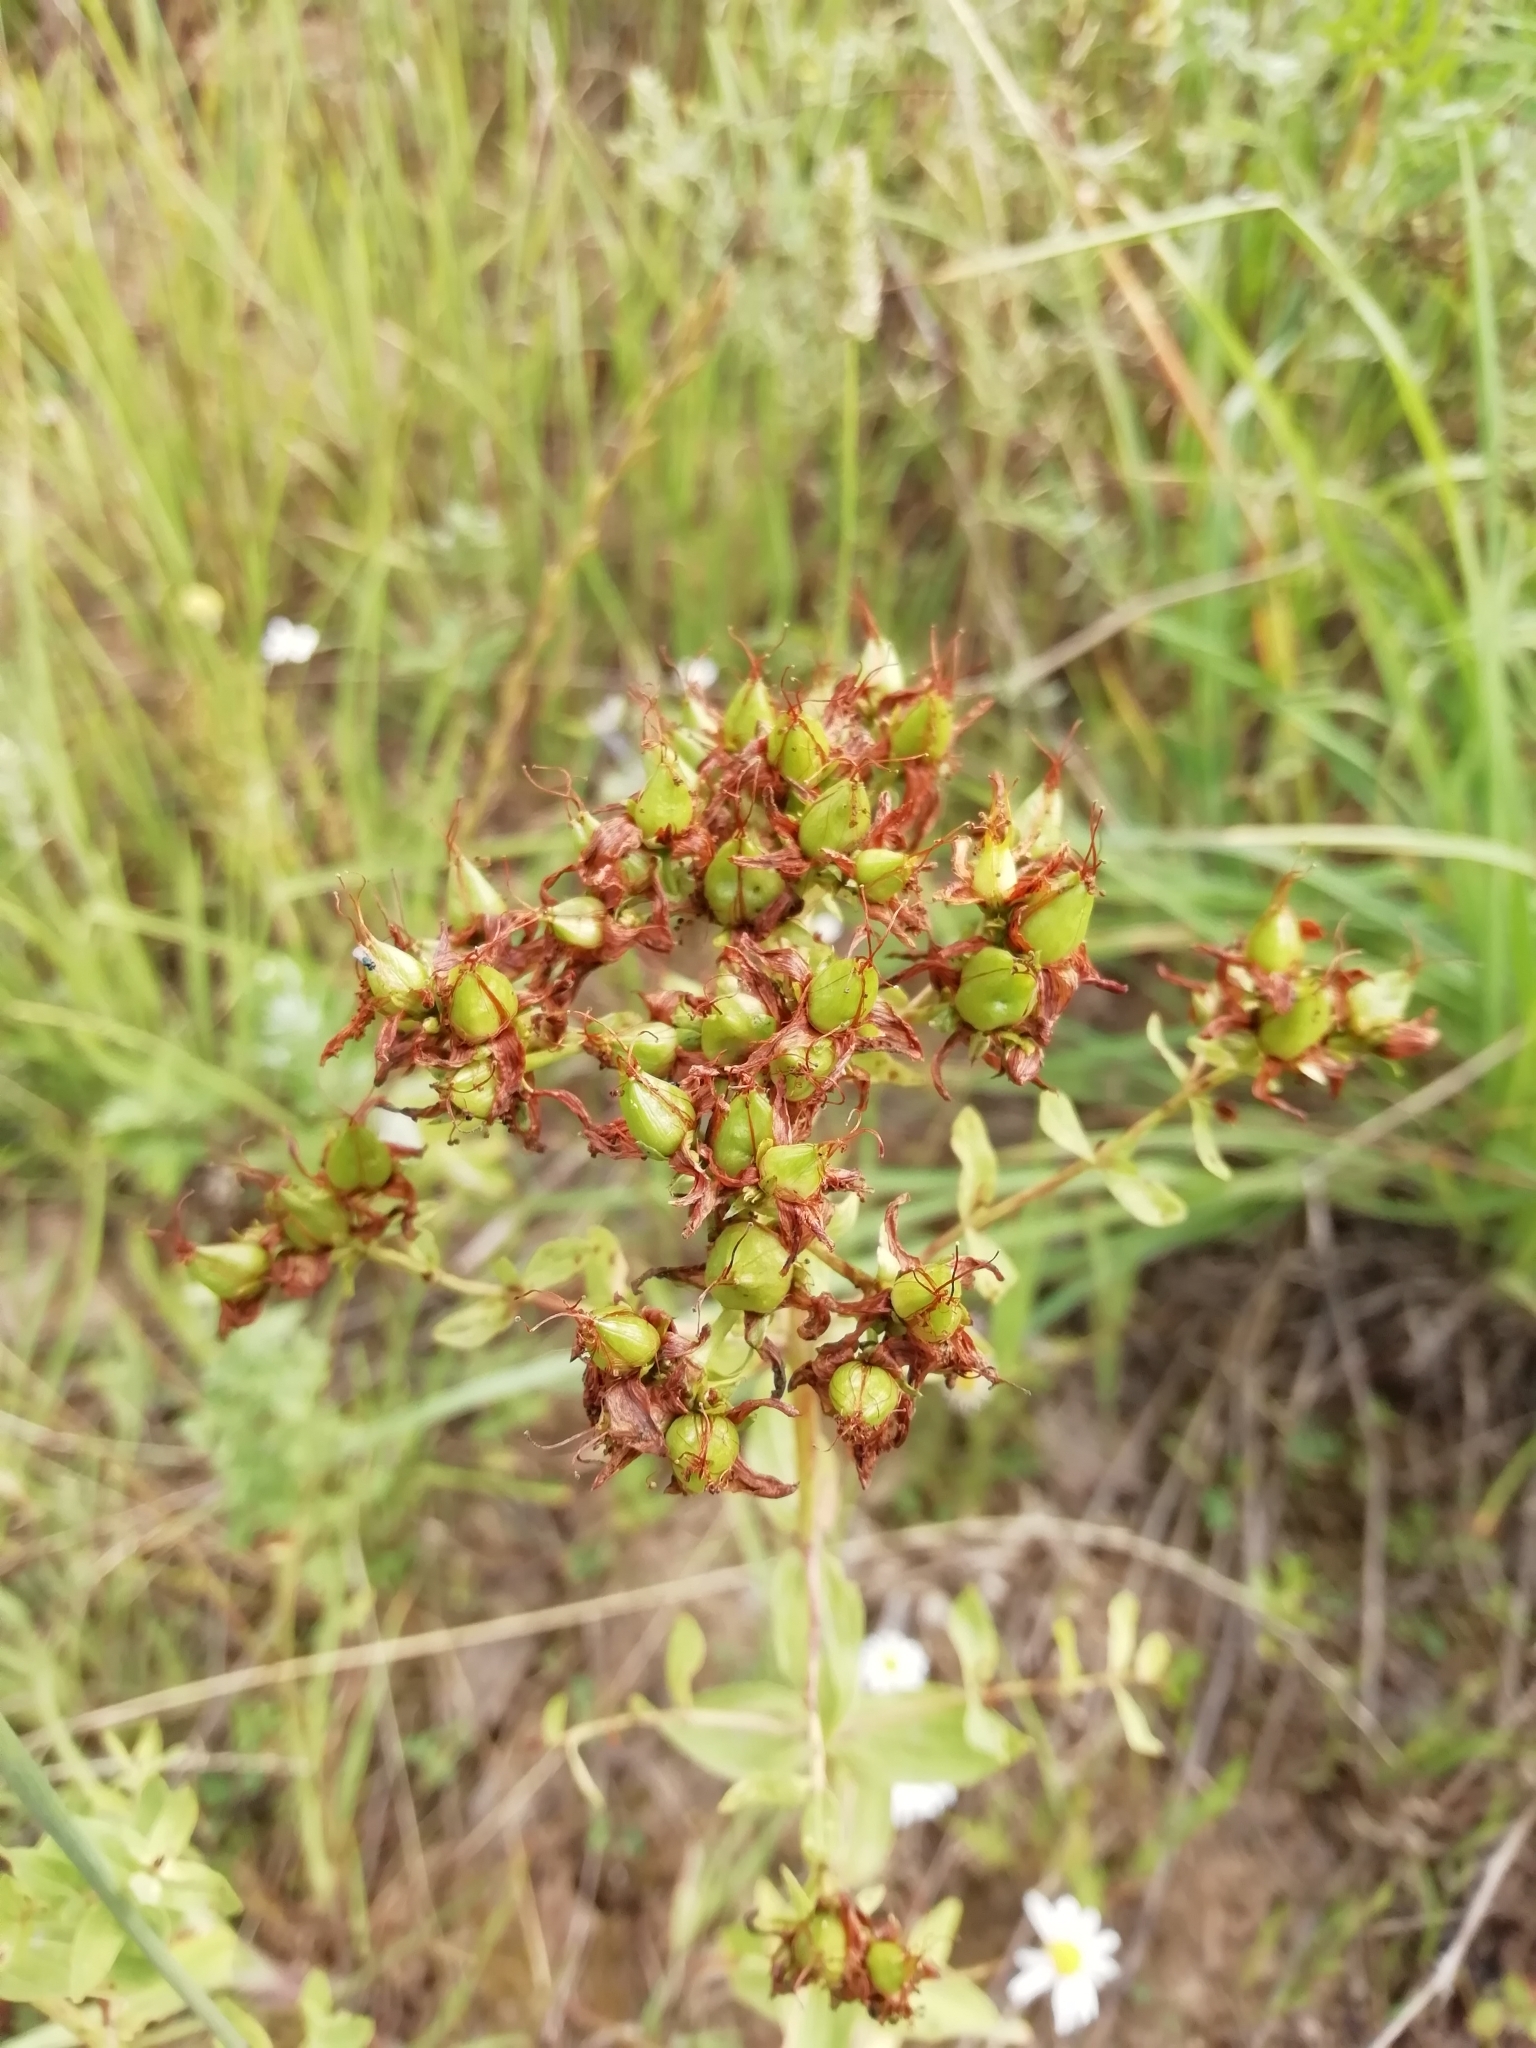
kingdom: Plantae
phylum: Tracheophyta
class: Magnoliopsida
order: Malpighiales
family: Hypericaceae
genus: Hypericum
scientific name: Hypericum perforatum
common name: Common st. johnswort
